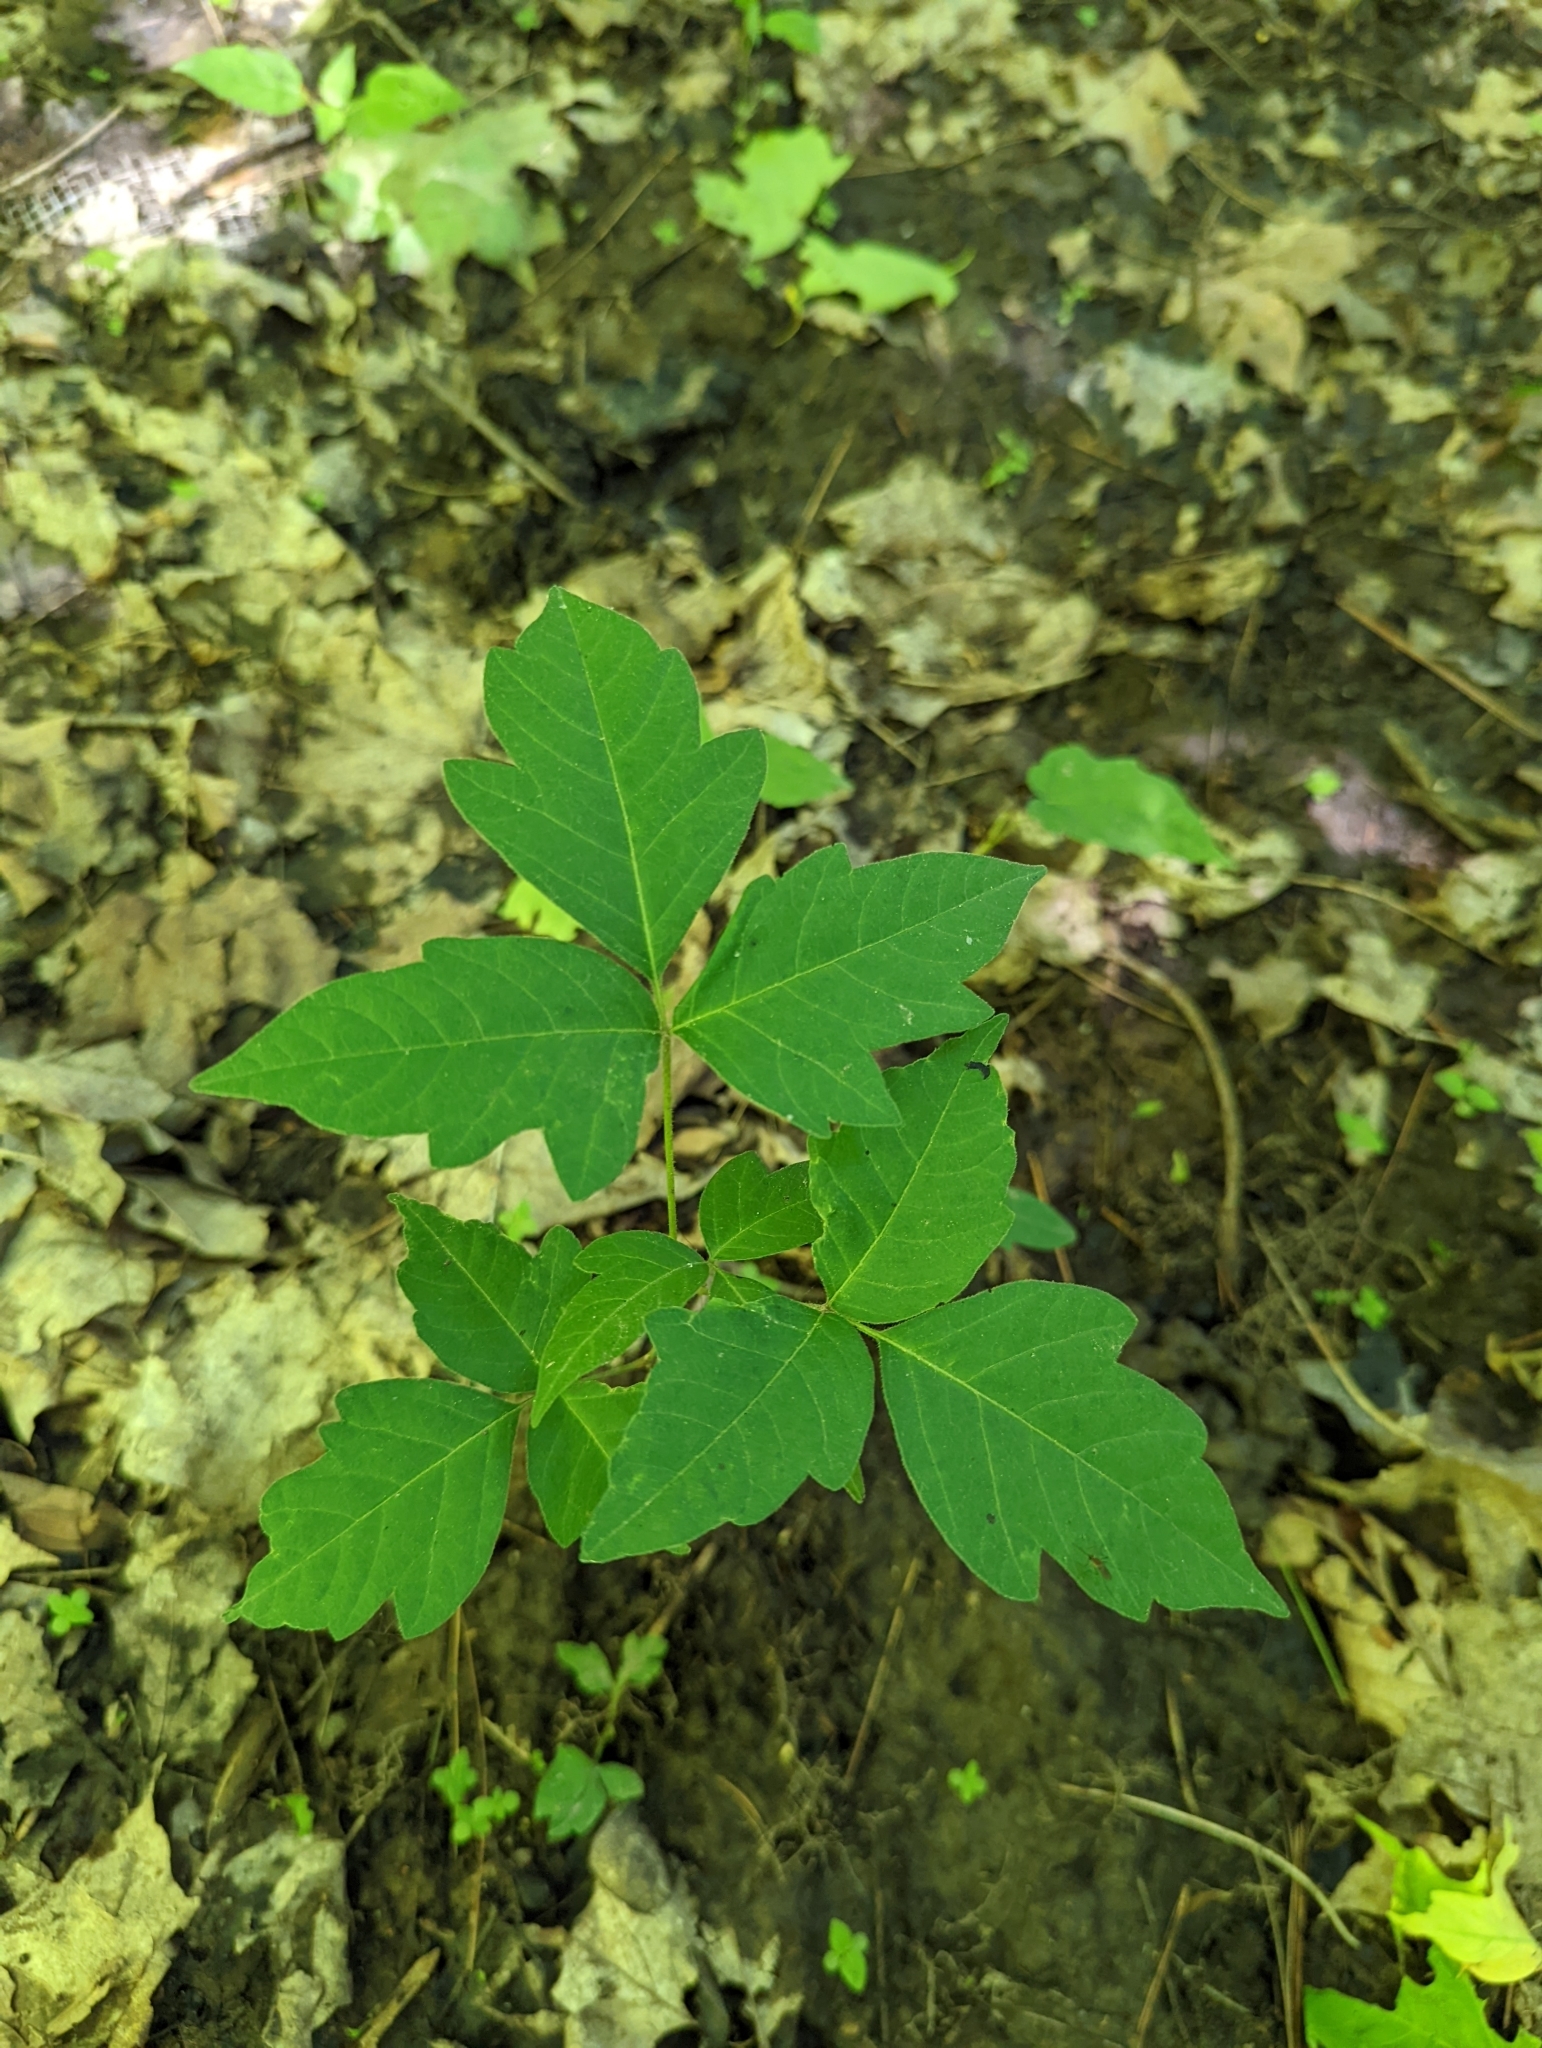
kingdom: Plantae
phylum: Tracheophyta
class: Magnoliopsida
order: Sapindales
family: Anacardiaceae
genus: Toxicodendron
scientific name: Toxicodendron radicans
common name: Poison ivy
